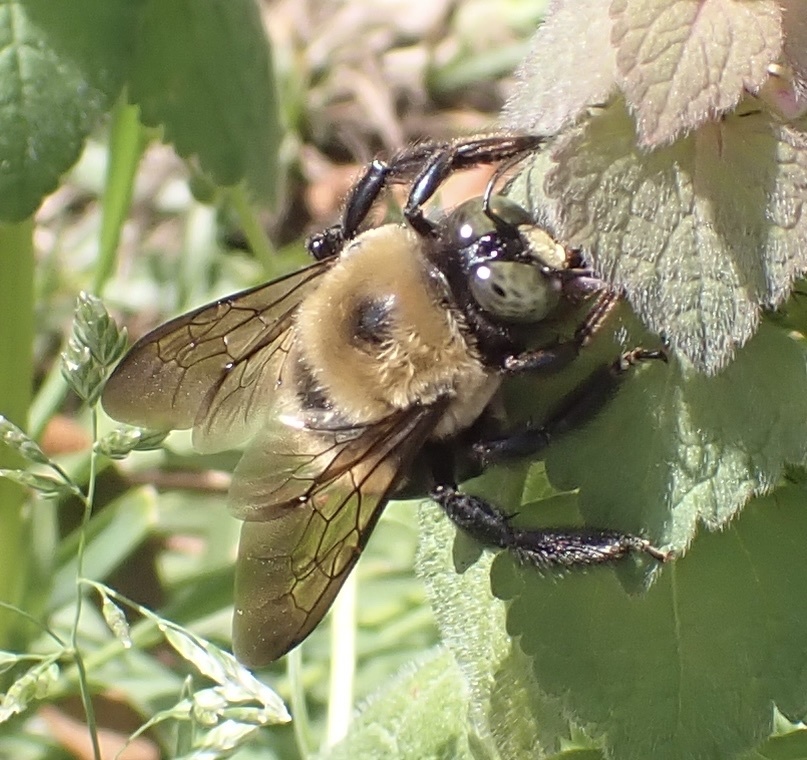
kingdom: Animalia
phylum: Arthropoda
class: Insecta
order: Hymenoptera
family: Apidae
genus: Xylocopa
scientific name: Xylocopa virginica
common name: Carpenter bee
